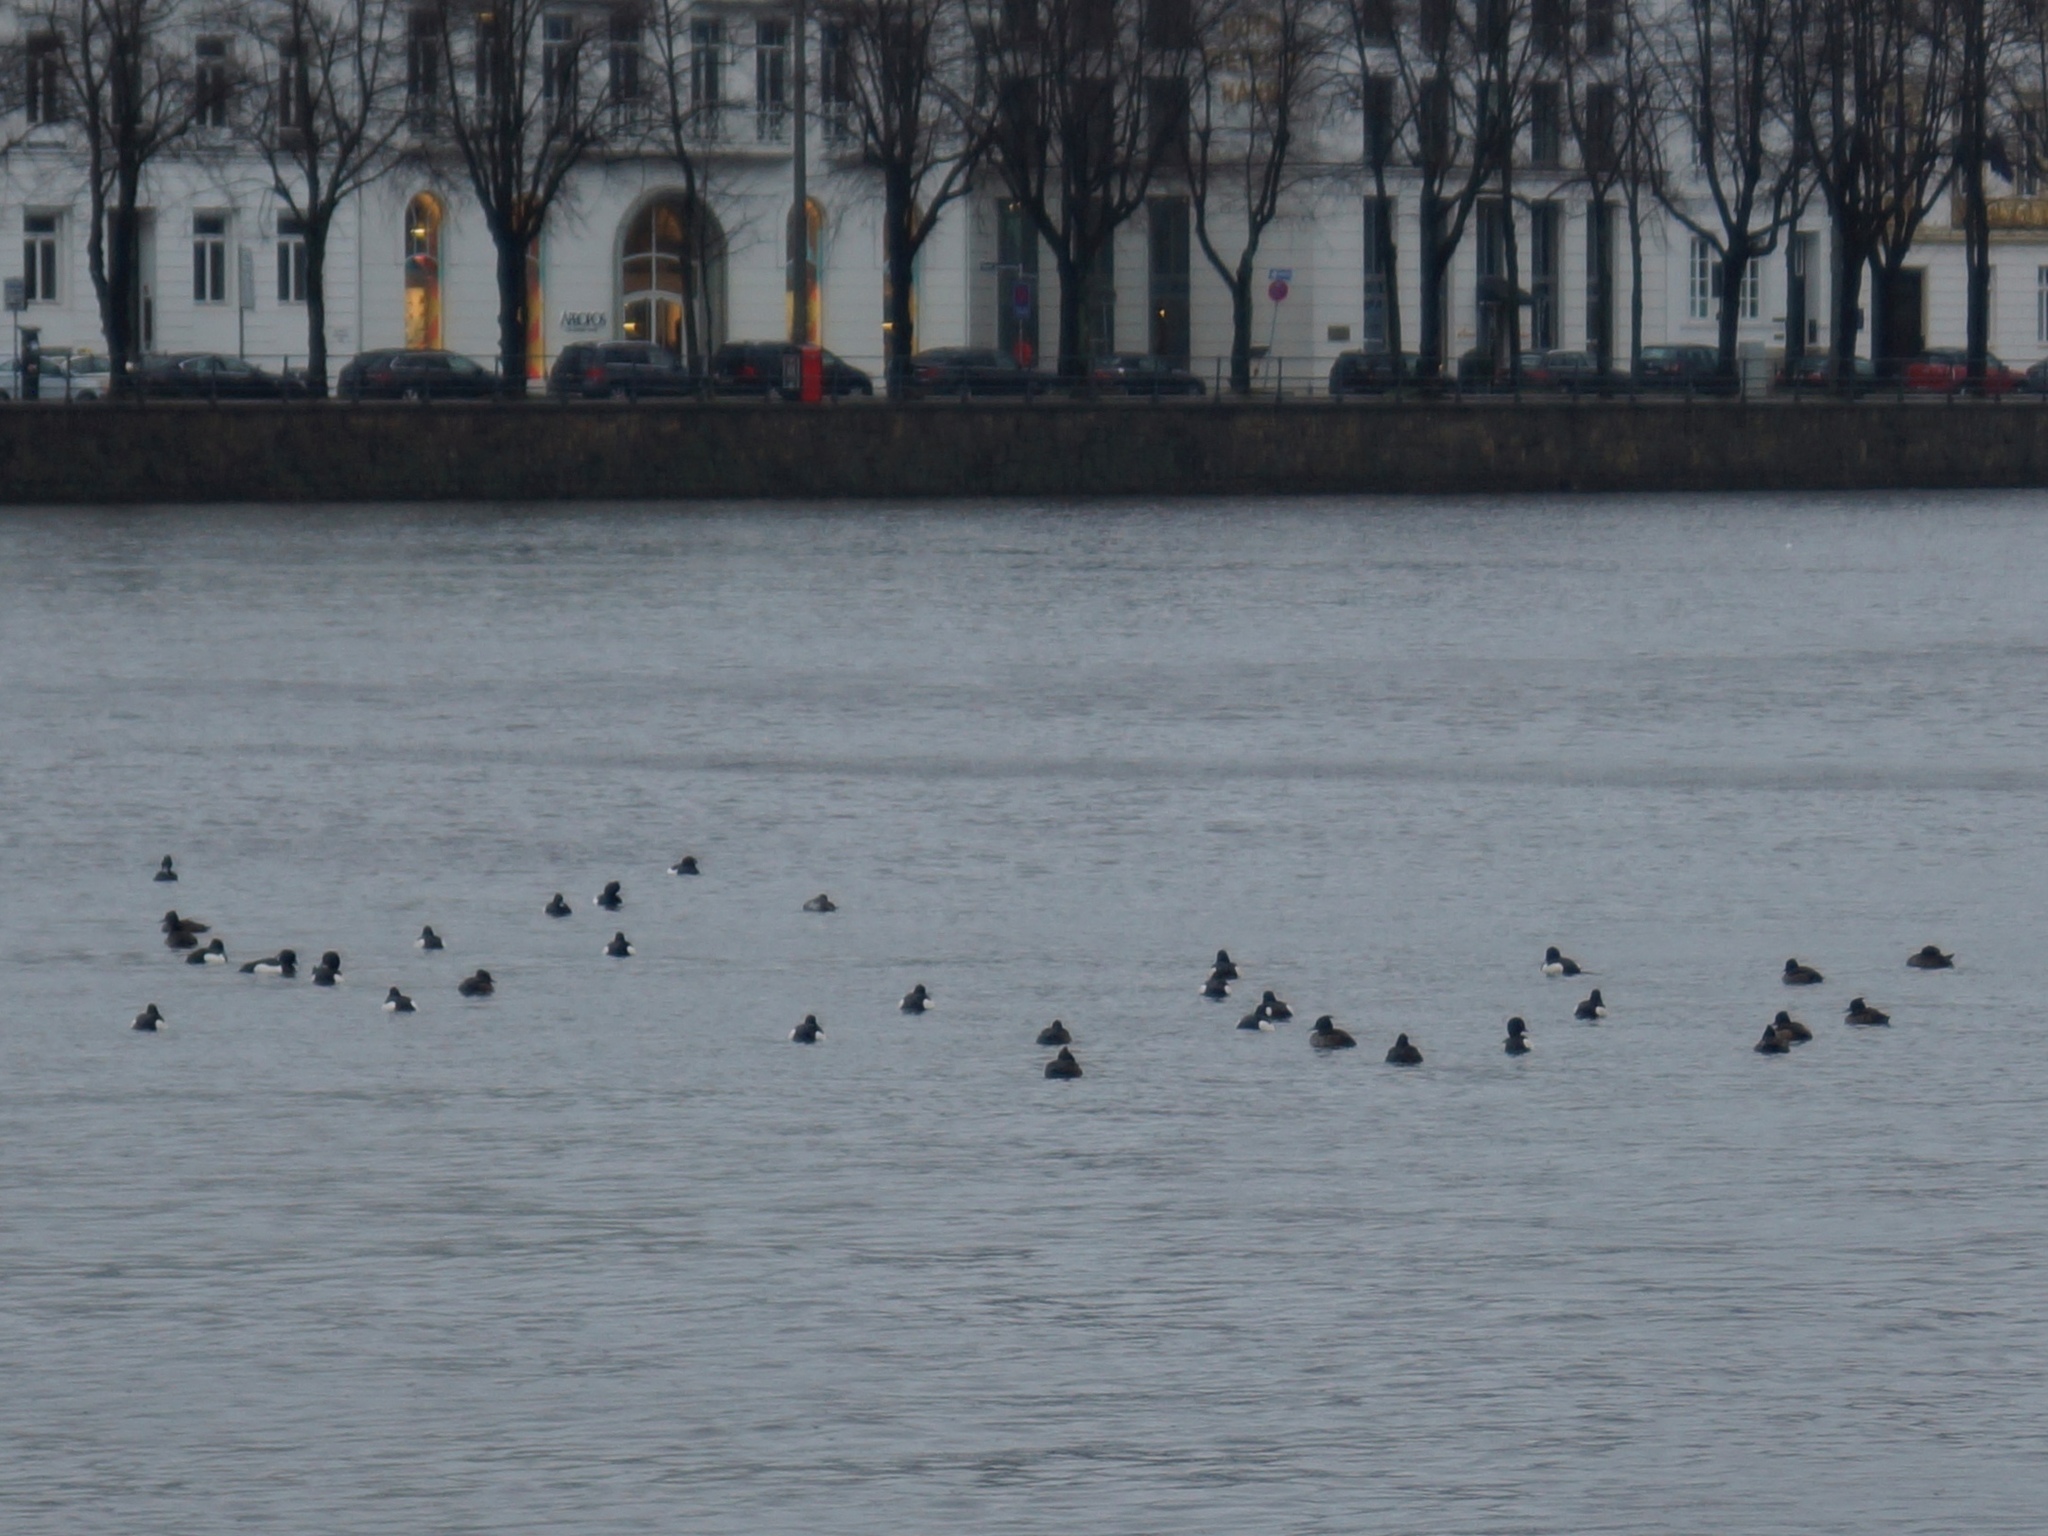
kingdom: Animalia
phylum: Chordata
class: Aves
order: Anseriformes
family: Anatidae
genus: Aythya
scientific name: Aythya fuligula
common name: Tufted duck
